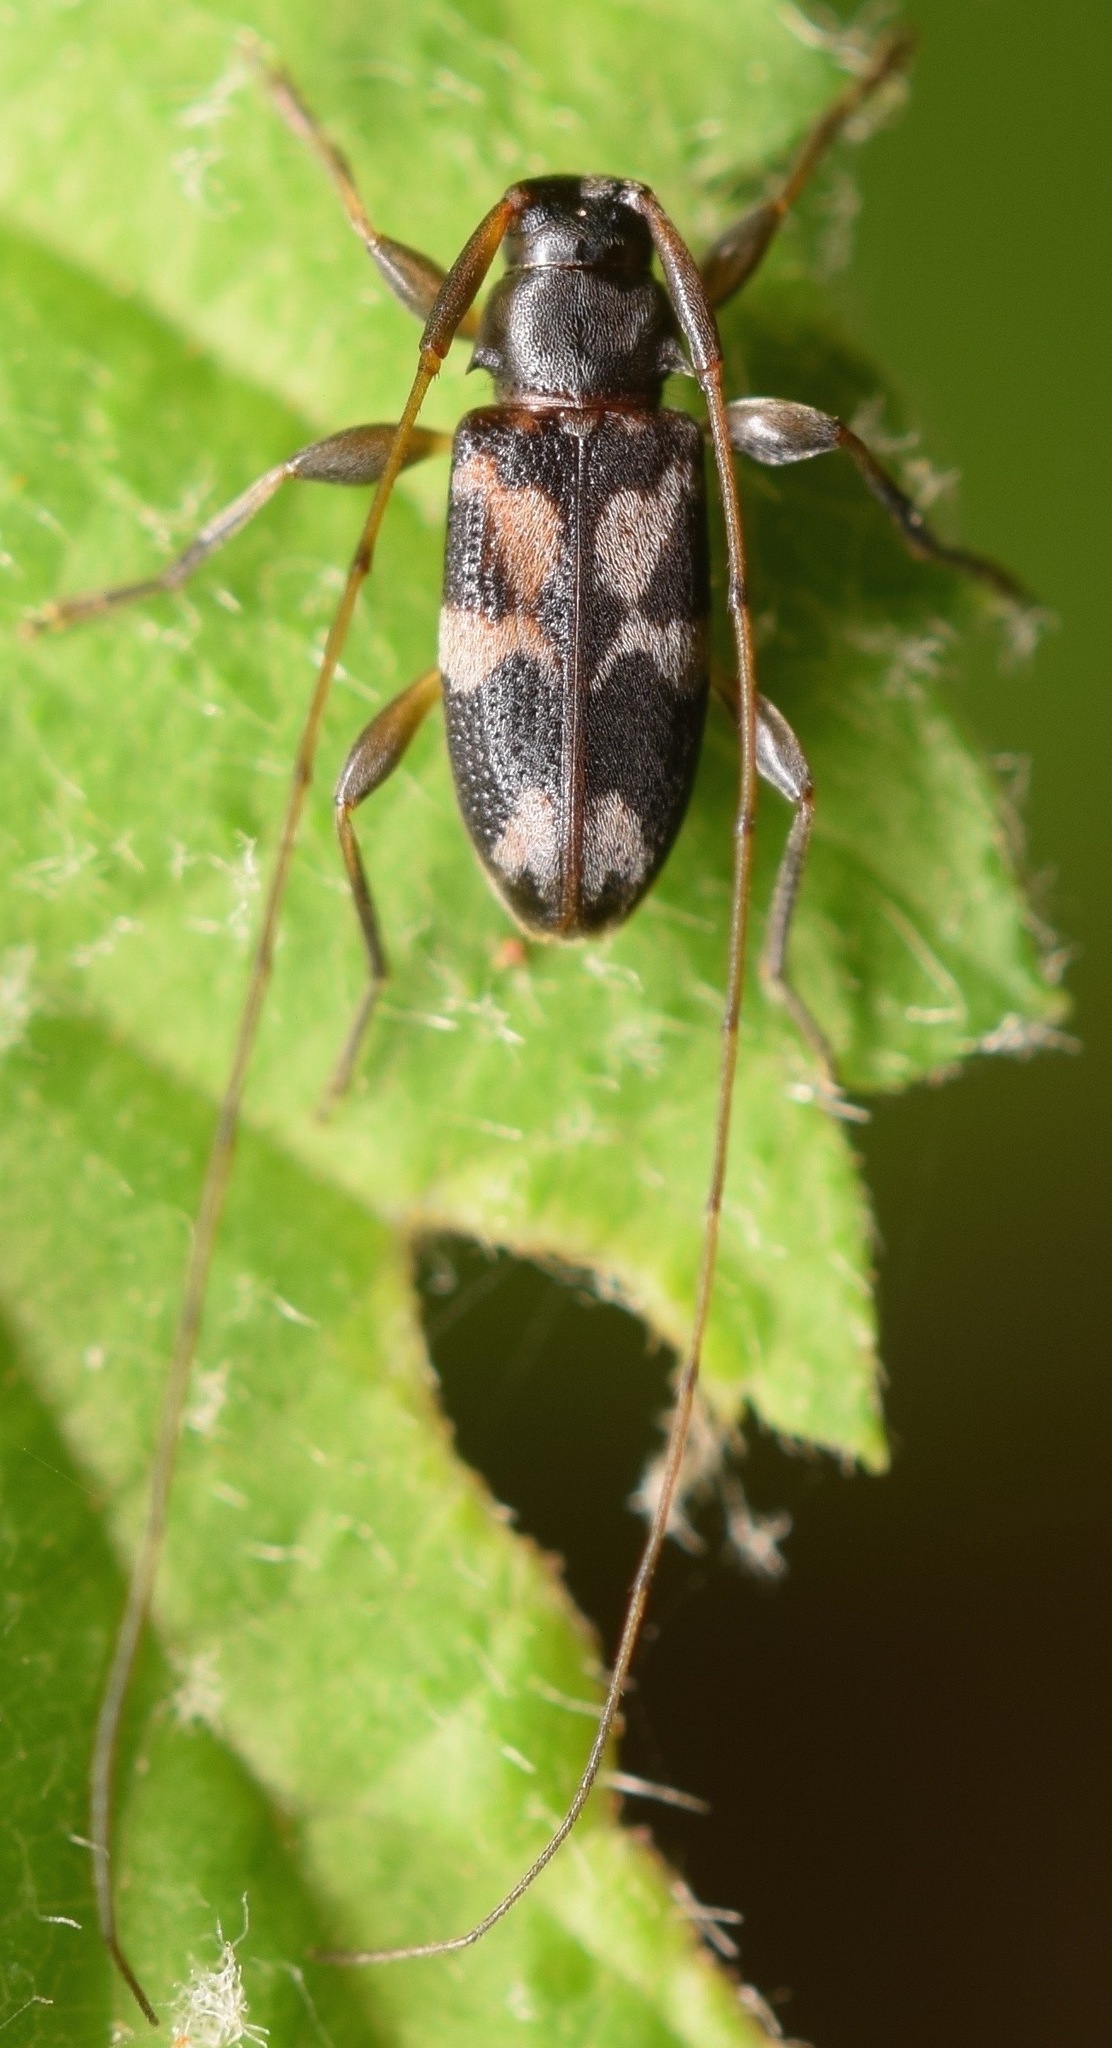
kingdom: Animalia
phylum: Arthropoda
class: Insecta
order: Coleoptera
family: Cerambycidae
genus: Urgleptes
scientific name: Urgleptes facetus
